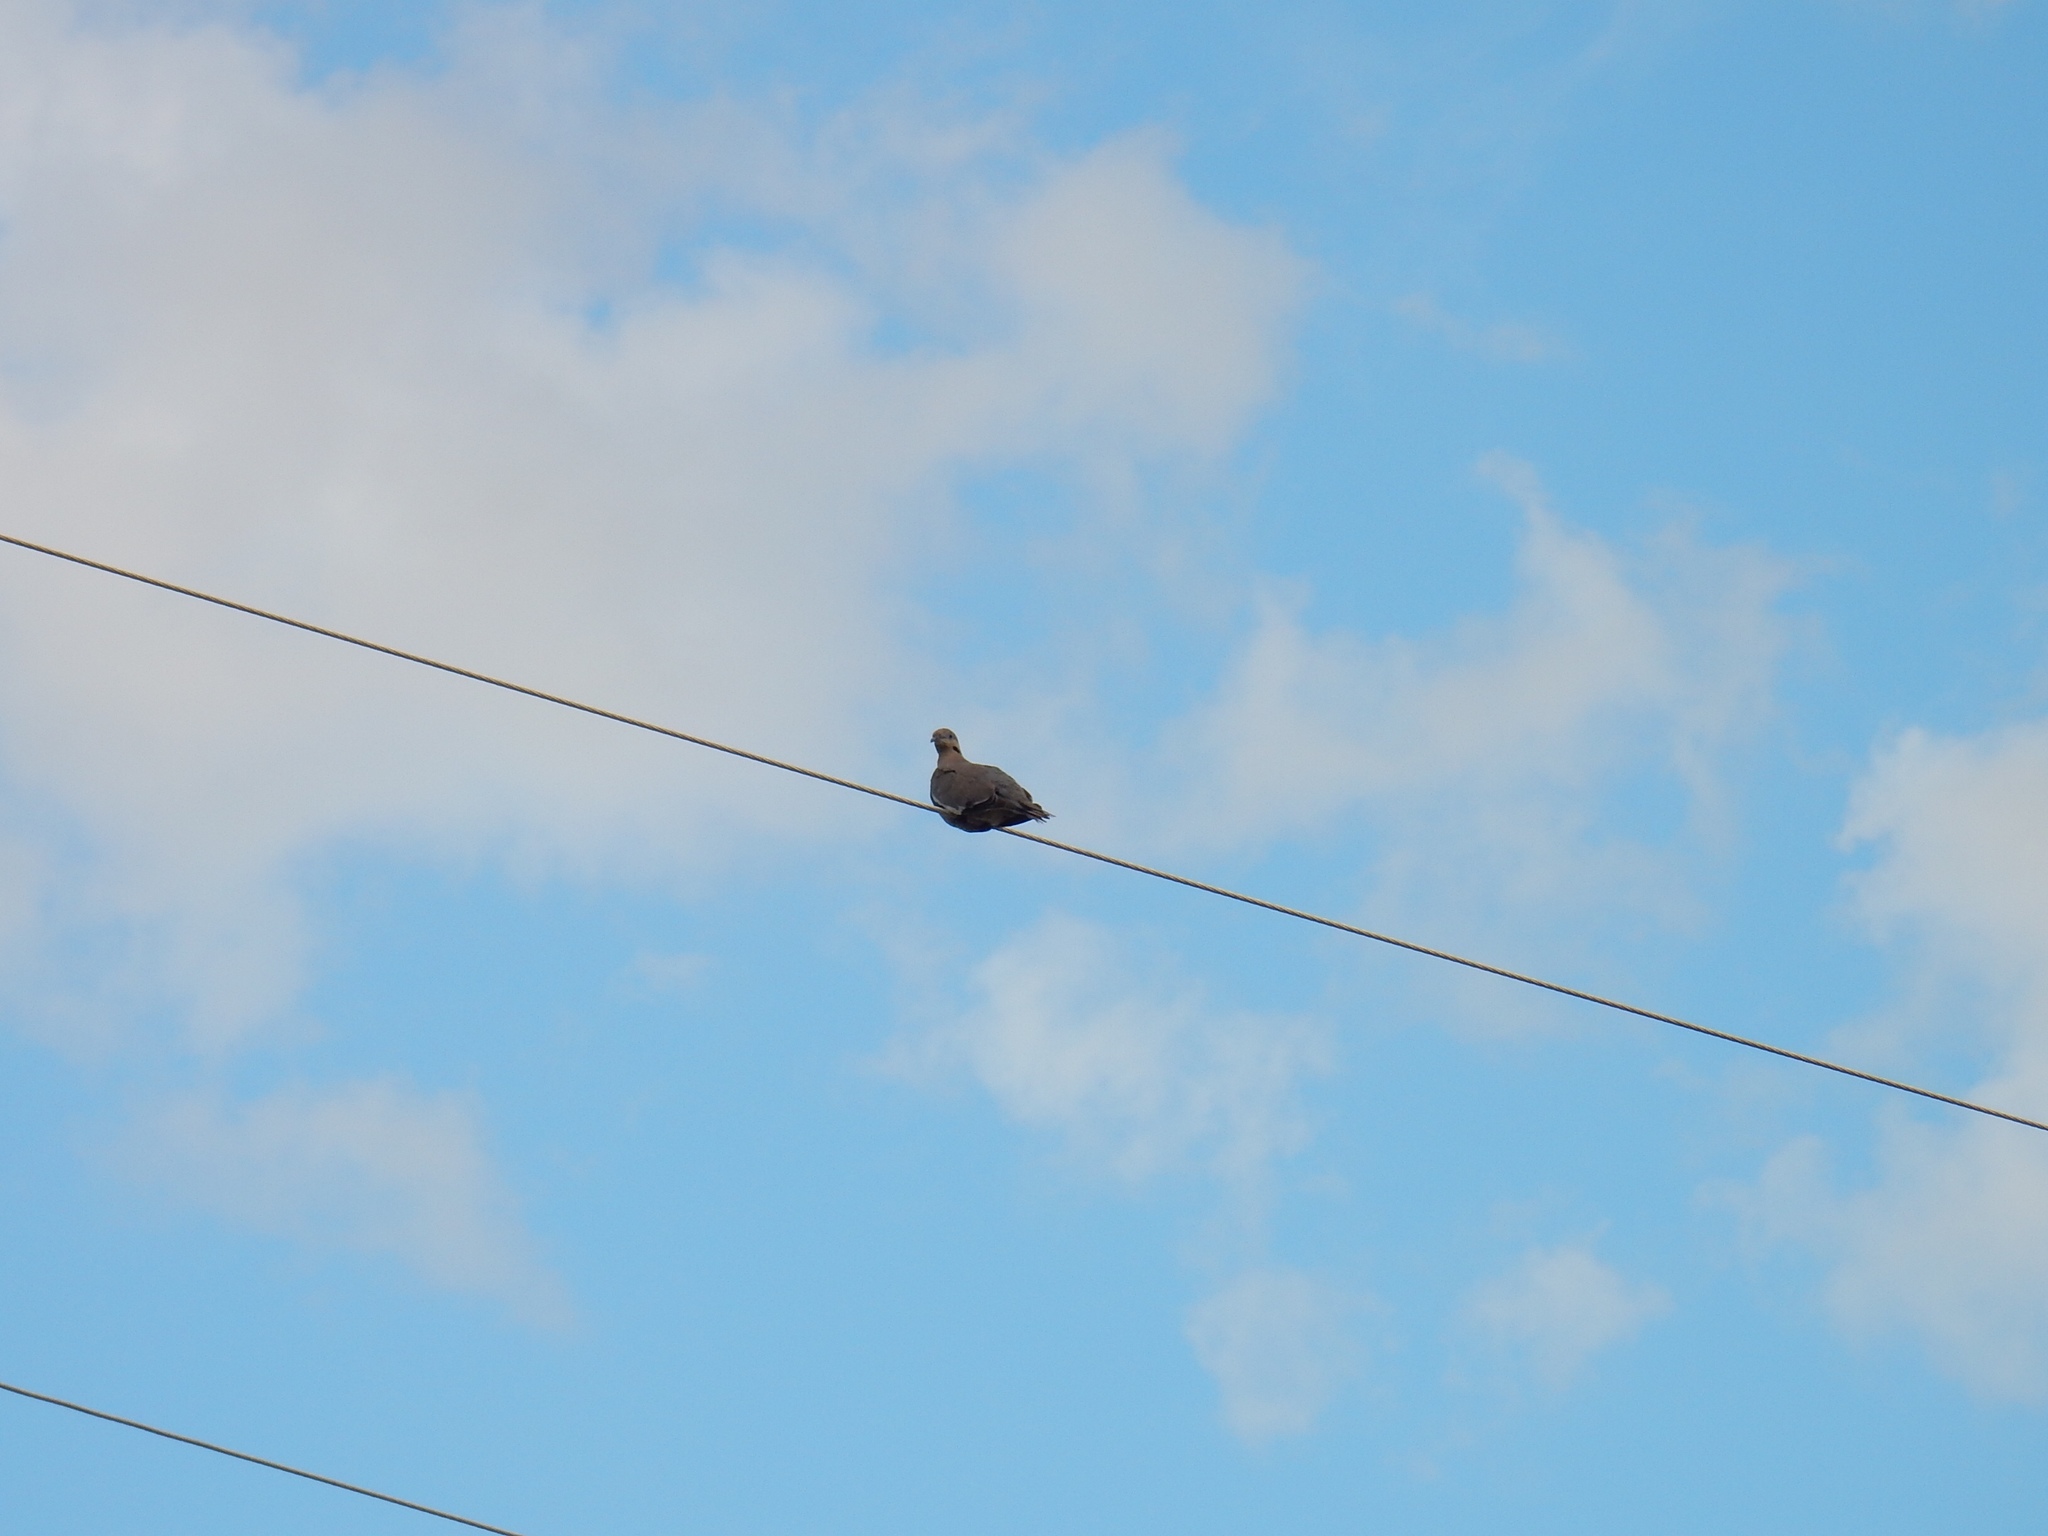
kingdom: Animalia
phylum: Chordata
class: Aves
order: Columbiformes
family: Columbidae
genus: Zenaida
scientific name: Zenaida asiatica
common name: White-winged dove
